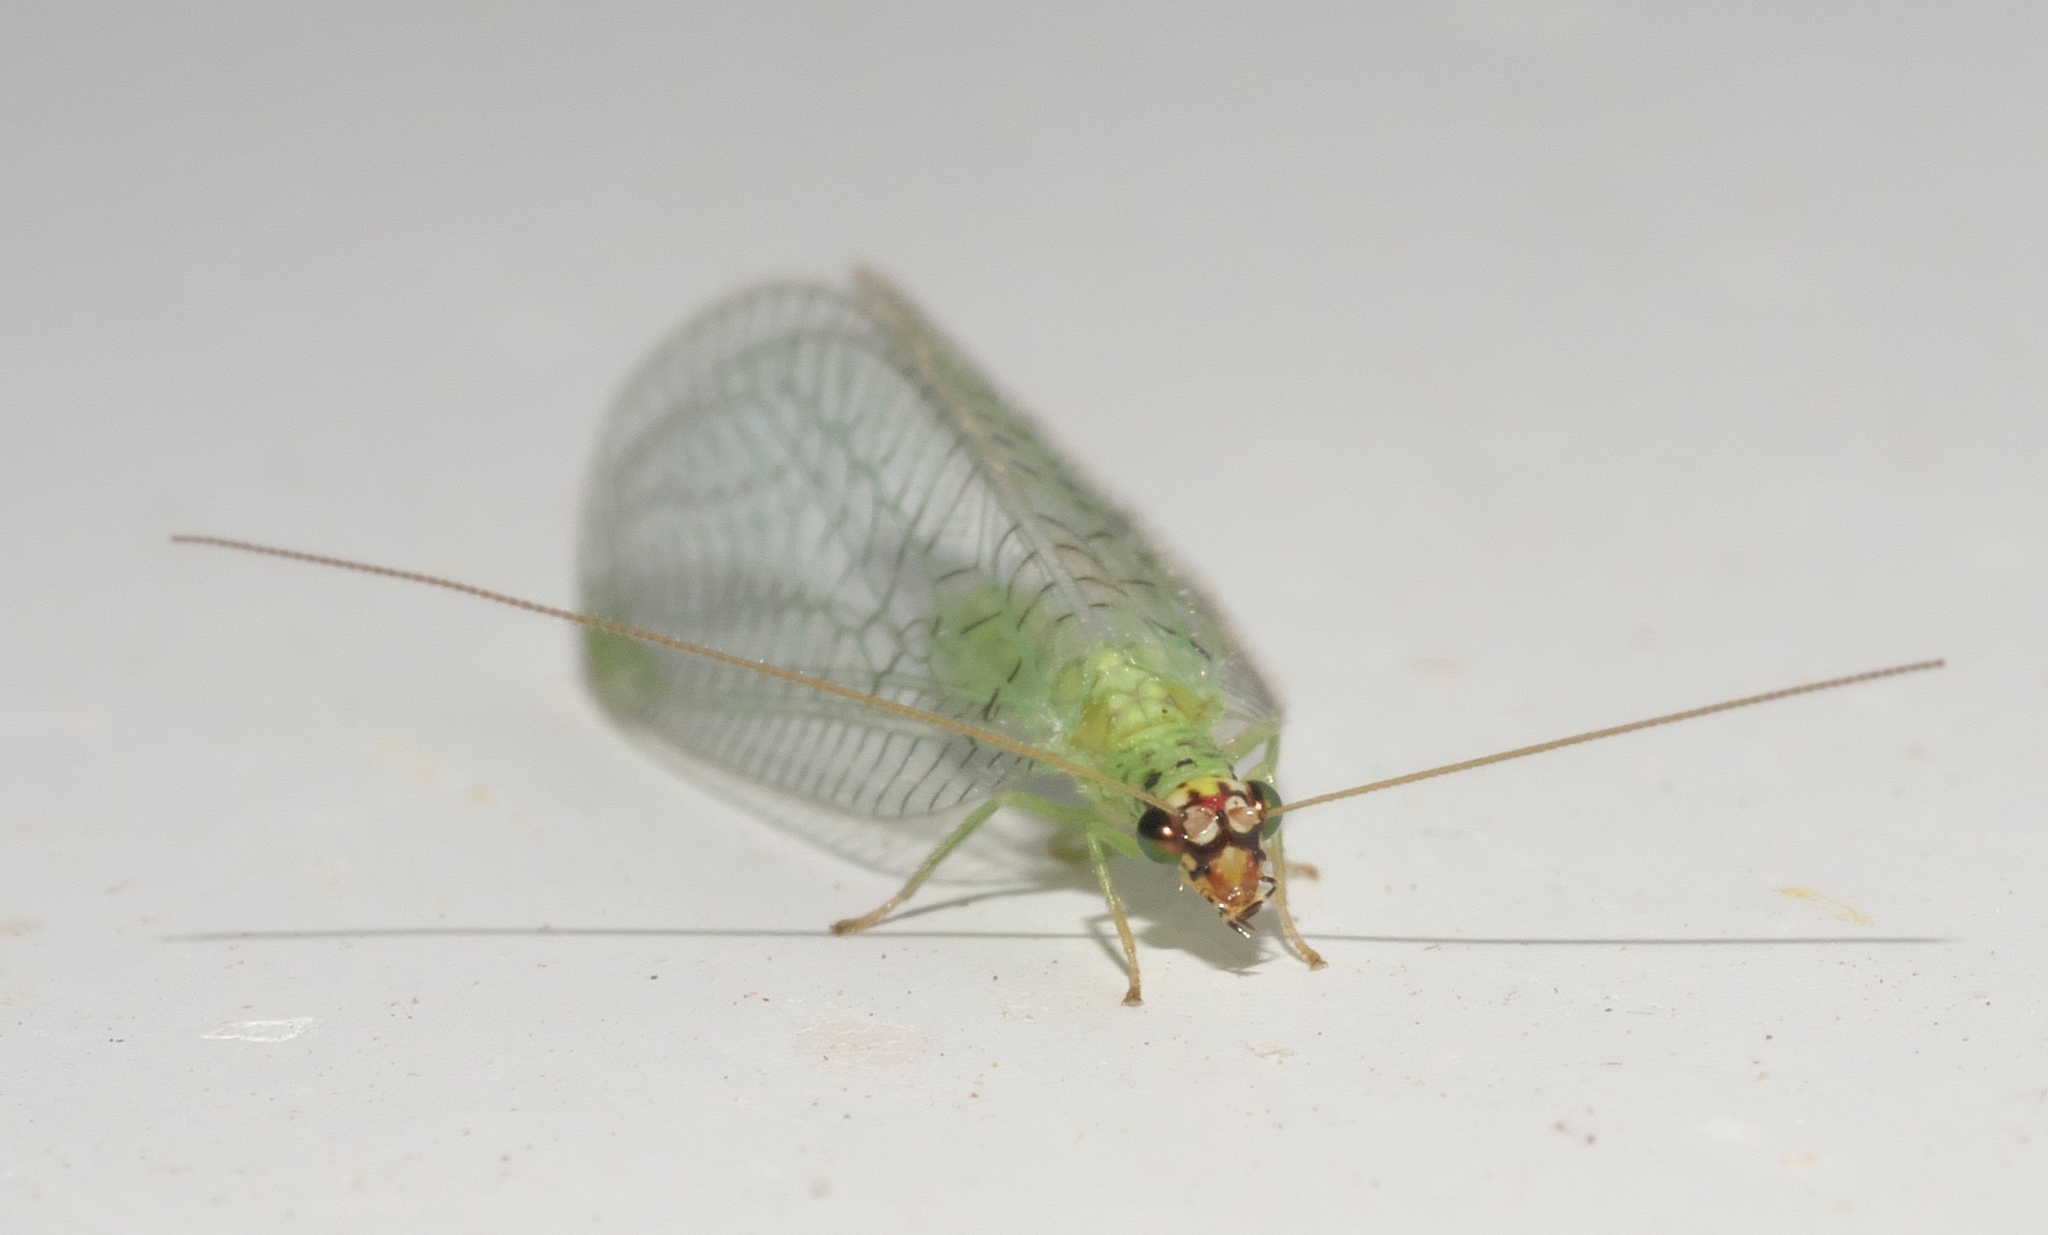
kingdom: Animalia
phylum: Arthropoda
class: Insecta
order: Neuroptera
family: Chrysopidae
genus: Chrysopa
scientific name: Chrysopa oculata
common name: Golden-eyed lacewing
